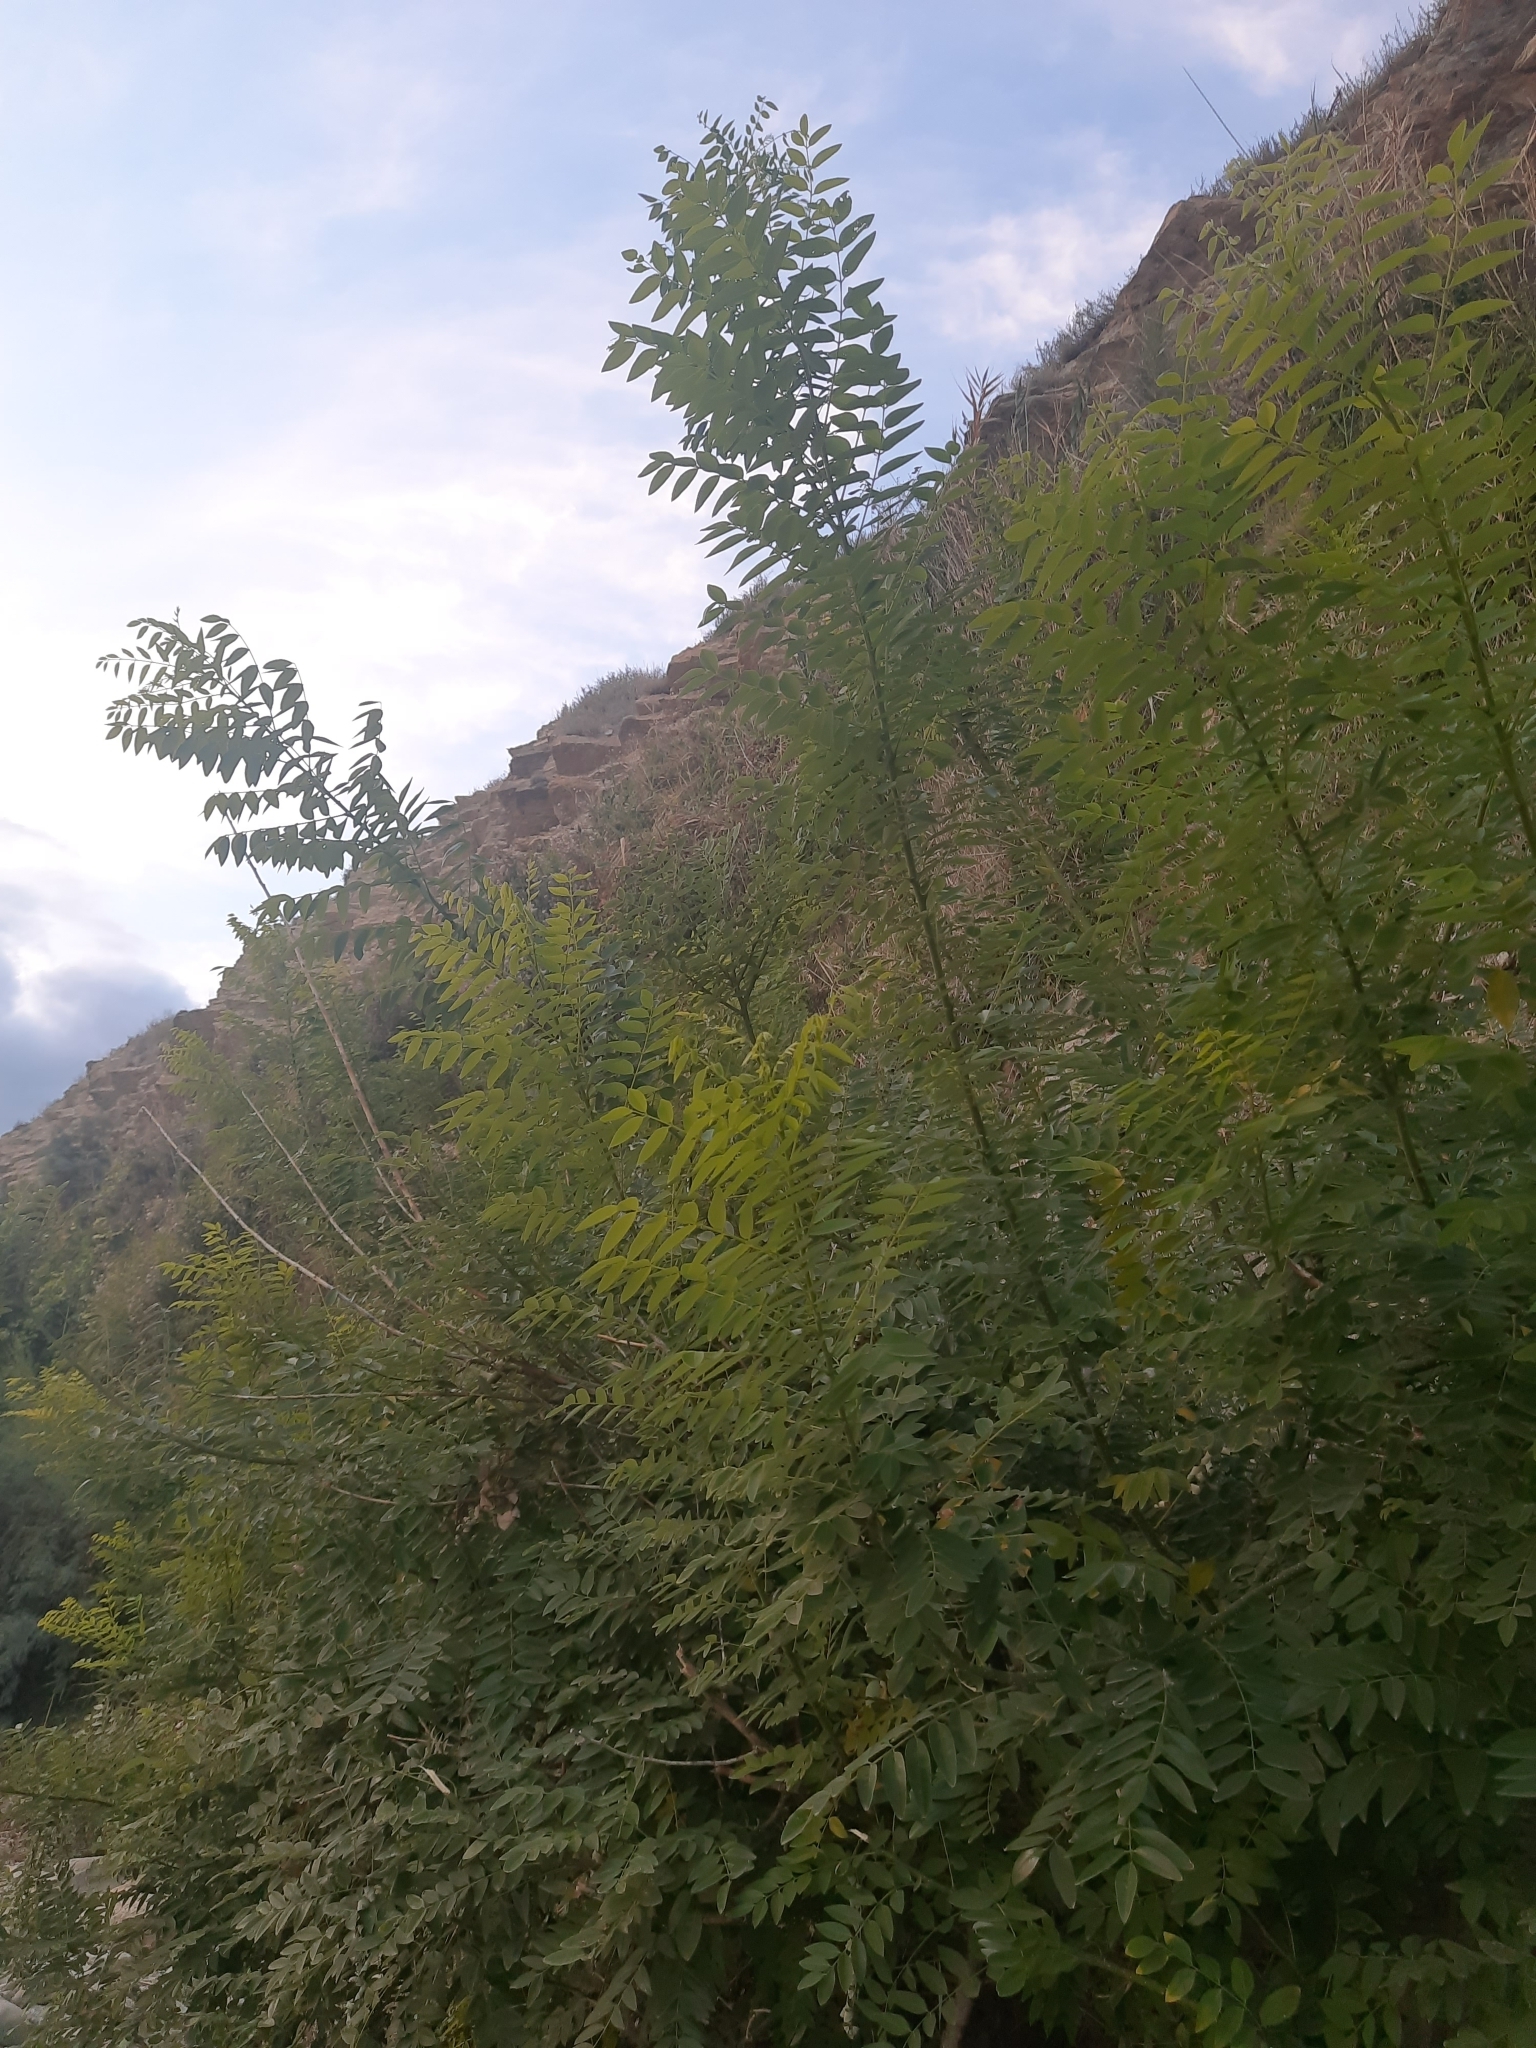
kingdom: Plantae
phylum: Tracheophyta
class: Magnoliopsida
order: Fabales
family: Fabaceae
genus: Robinia
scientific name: Robinia pseudoacacia
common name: Black locust
